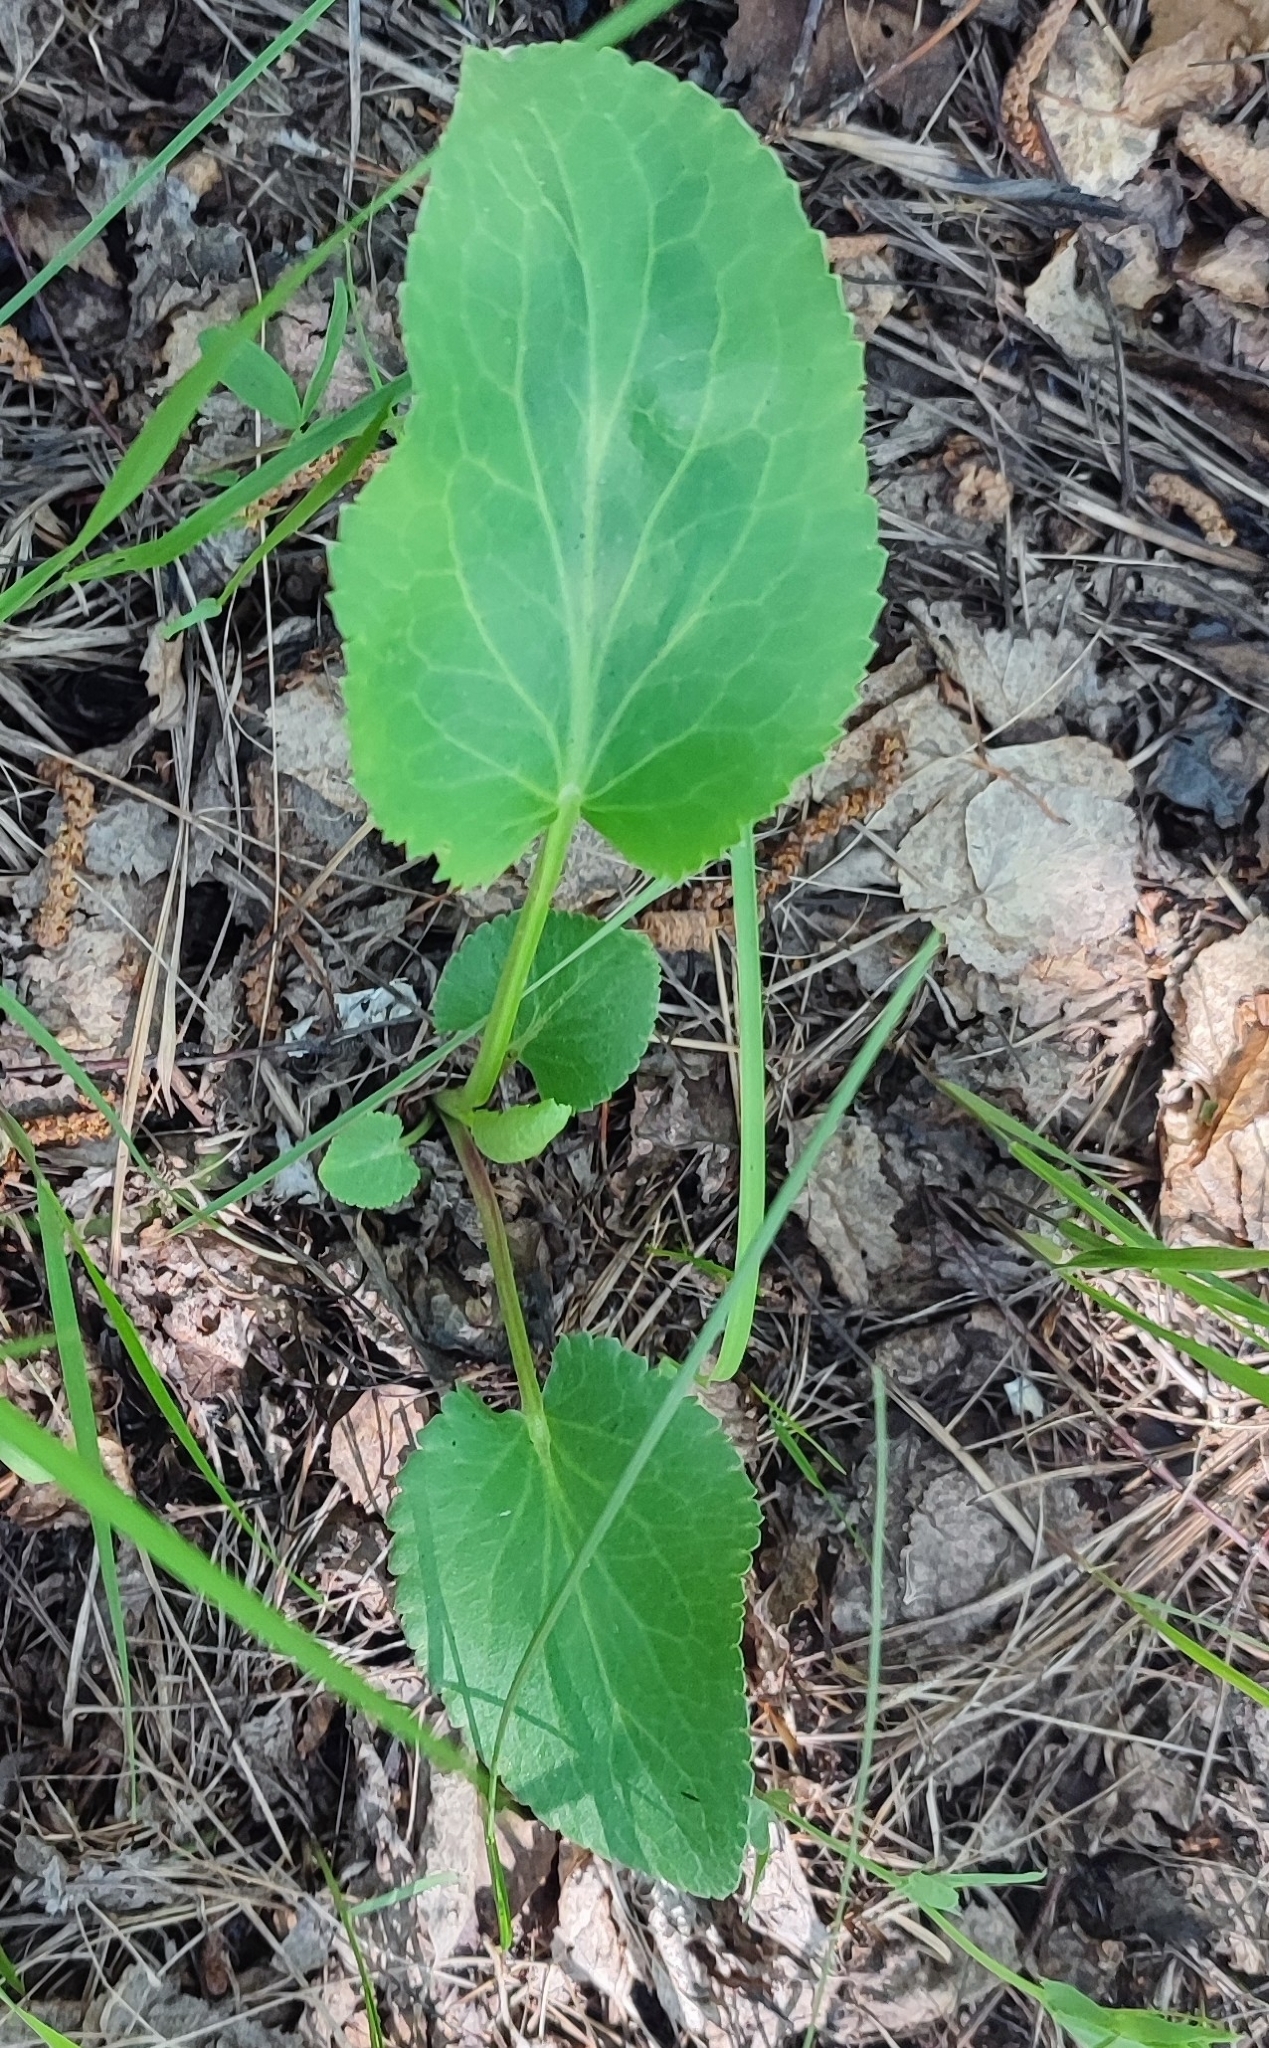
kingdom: Plantae
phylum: Tracheophyta
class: Magnoliopsida
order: Apiales
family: Apiaceae
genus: Eryngium
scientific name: Eryngium planum
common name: Blue eryngo
